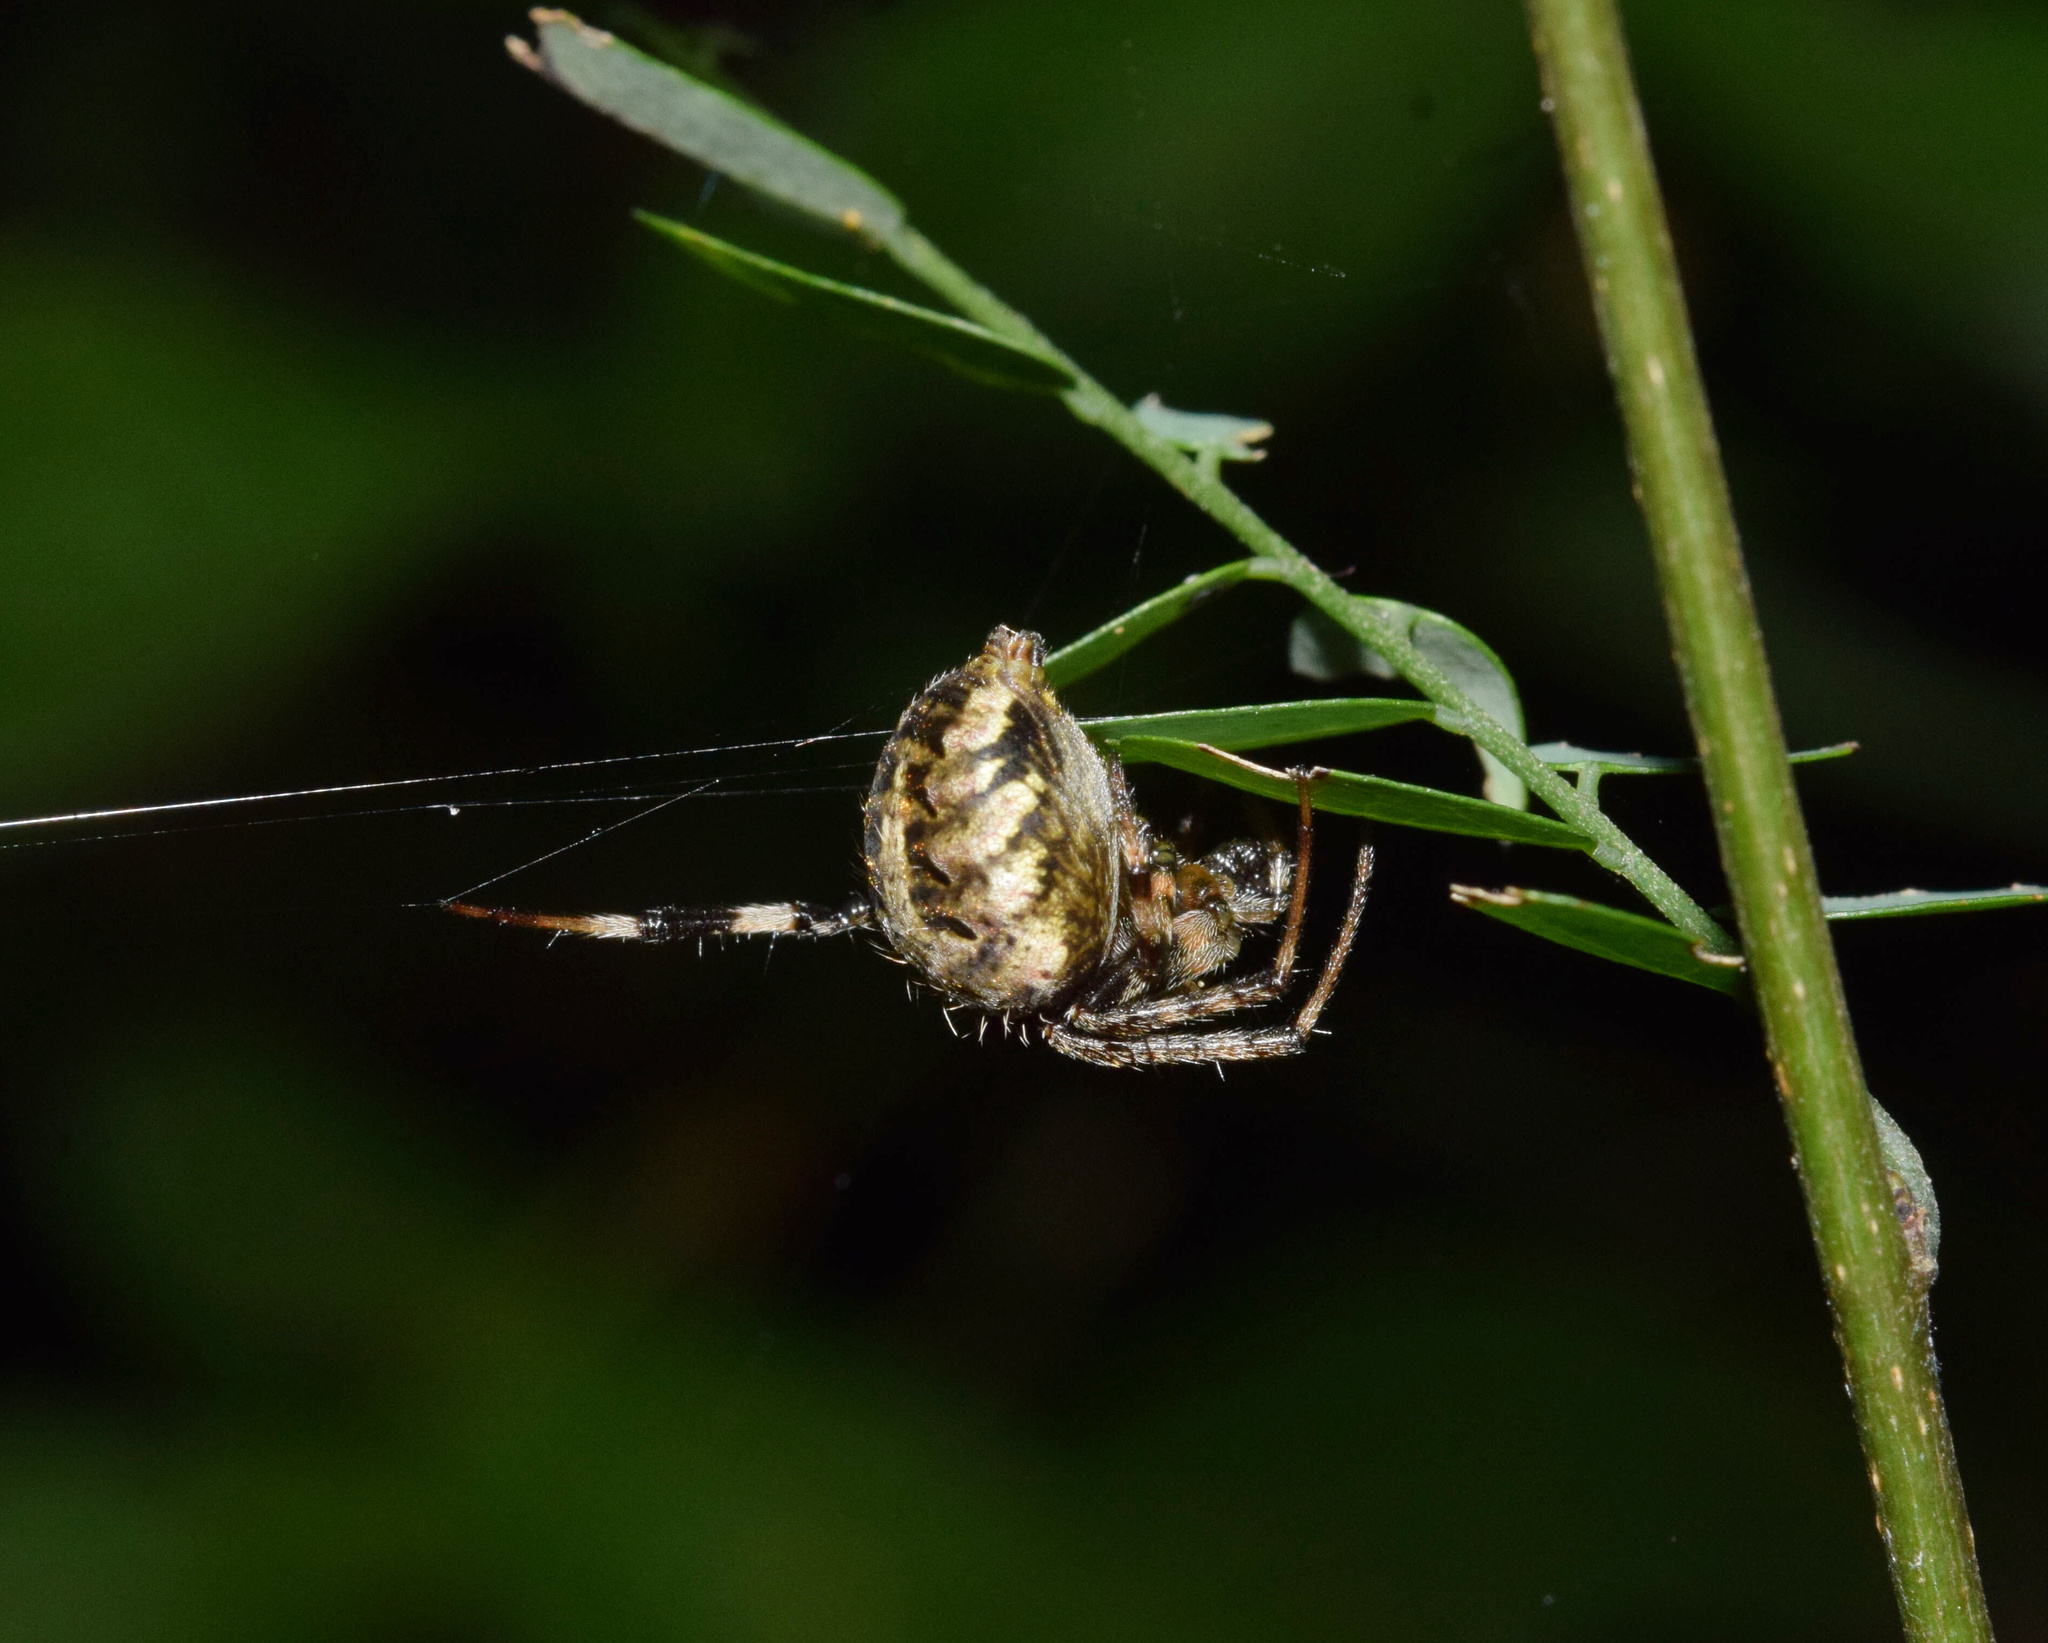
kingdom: Animalia
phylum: Arthropoda
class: Arachnida
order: Araneae
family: Araneidae
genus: Neoscona
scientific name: Neoscona blondeli
